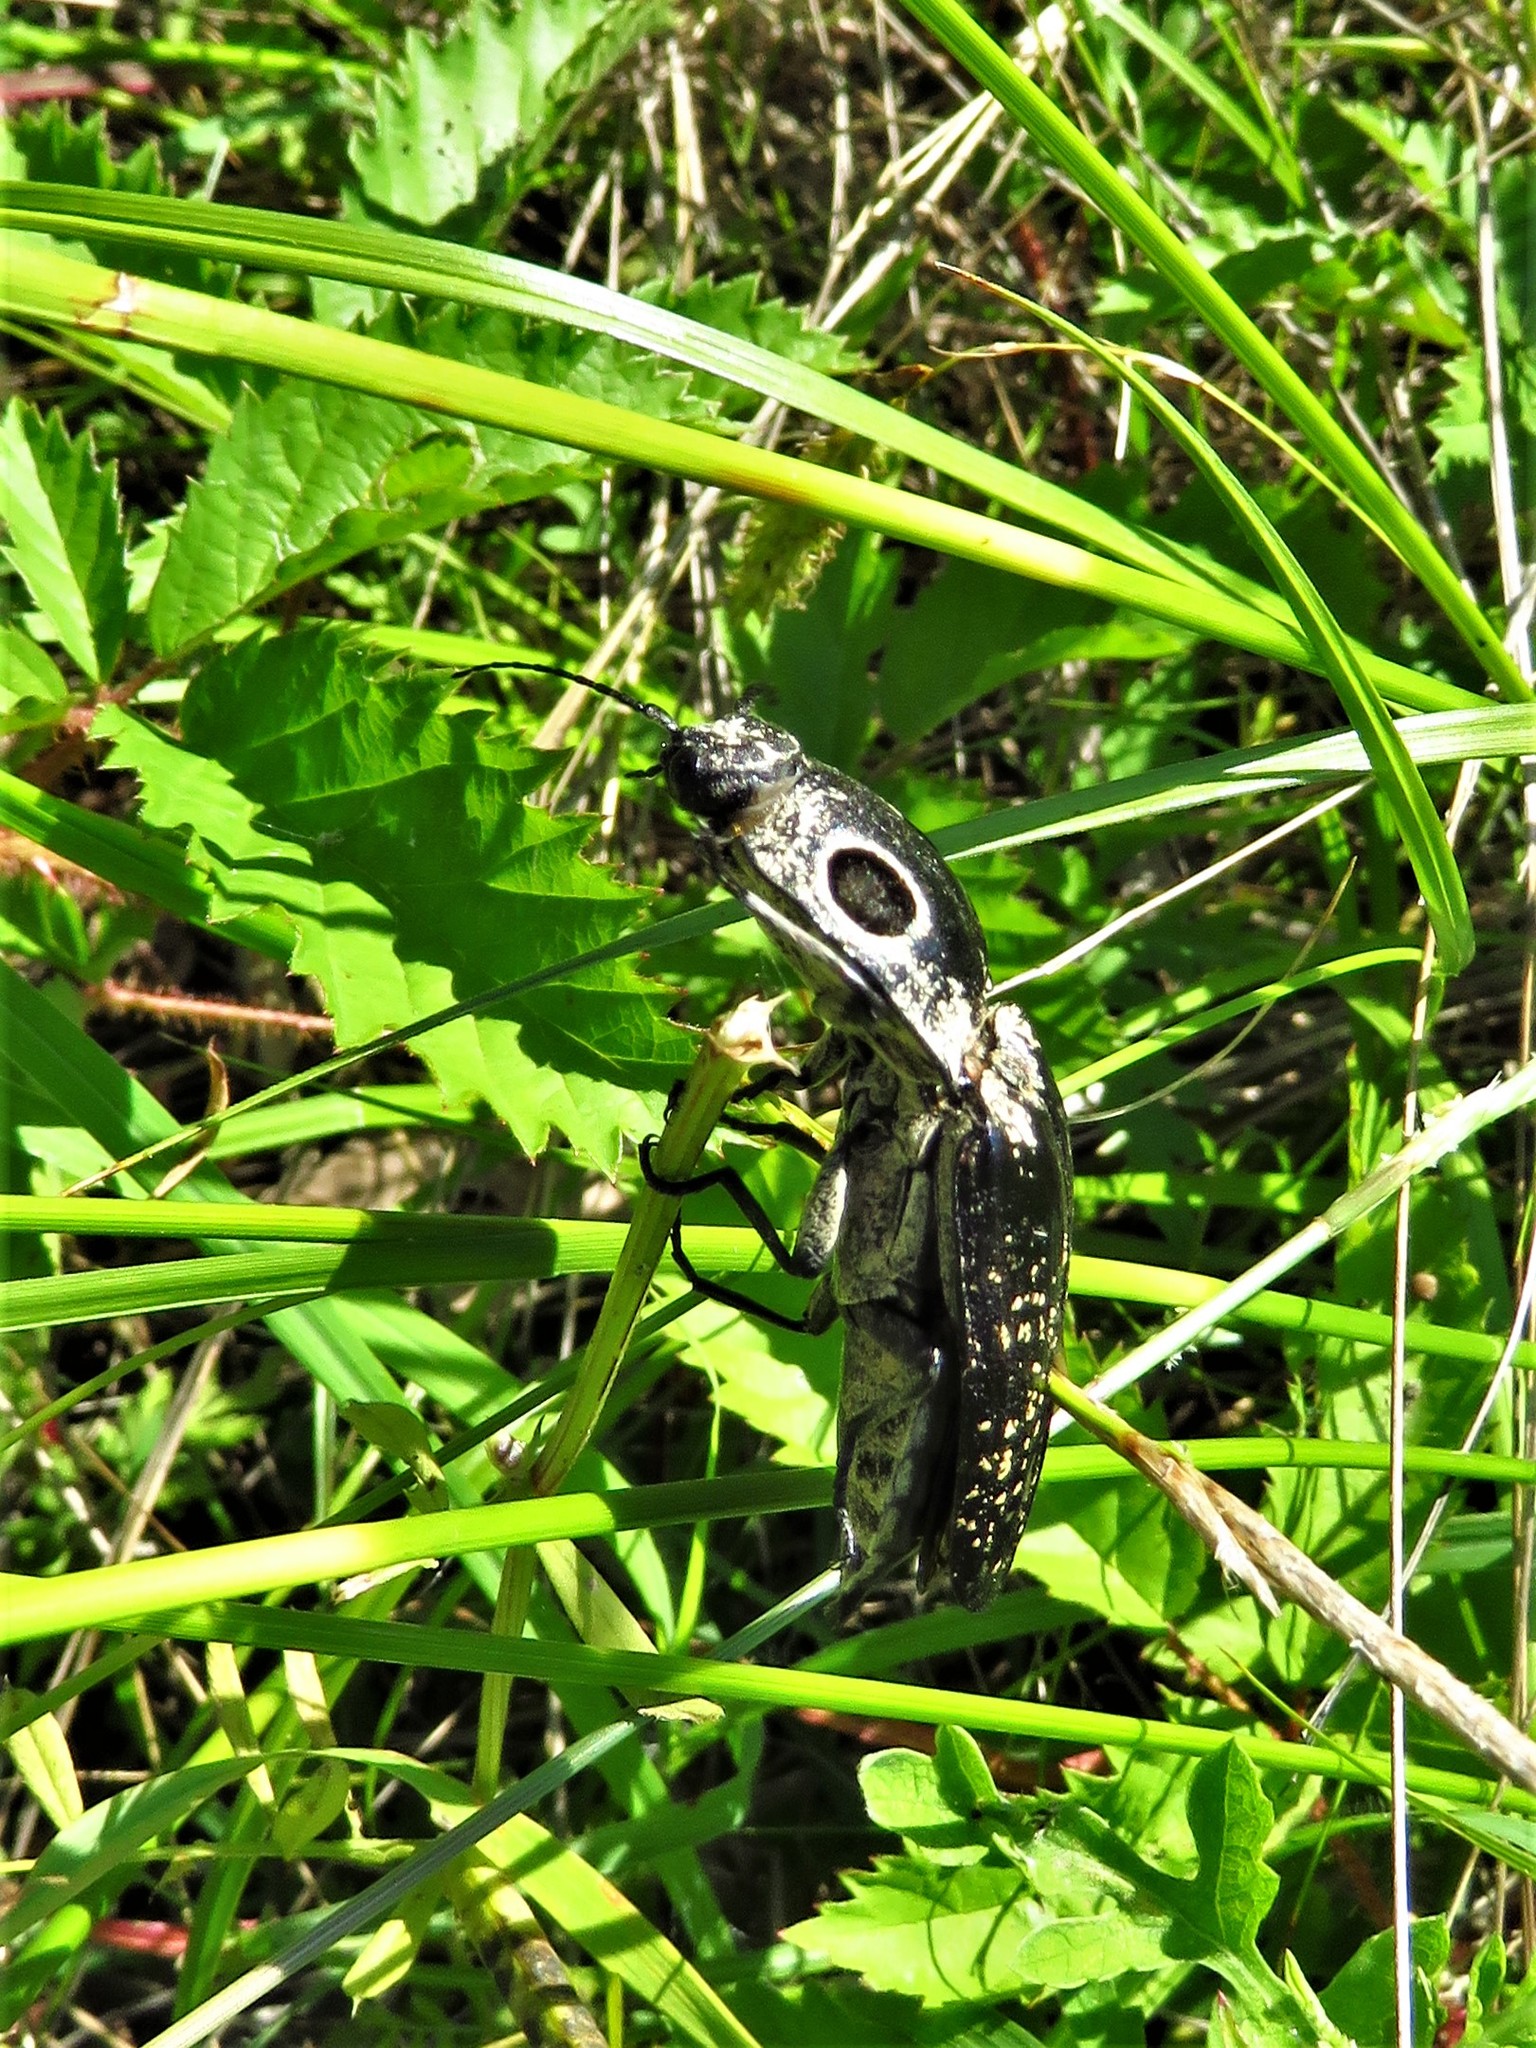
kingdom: Animalia
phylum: Arthropoda
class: Insecta
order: Coleoptera
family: Elateridae
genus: Alaus
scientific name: Alaus oculatus
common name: Eastern eyed click beetle
